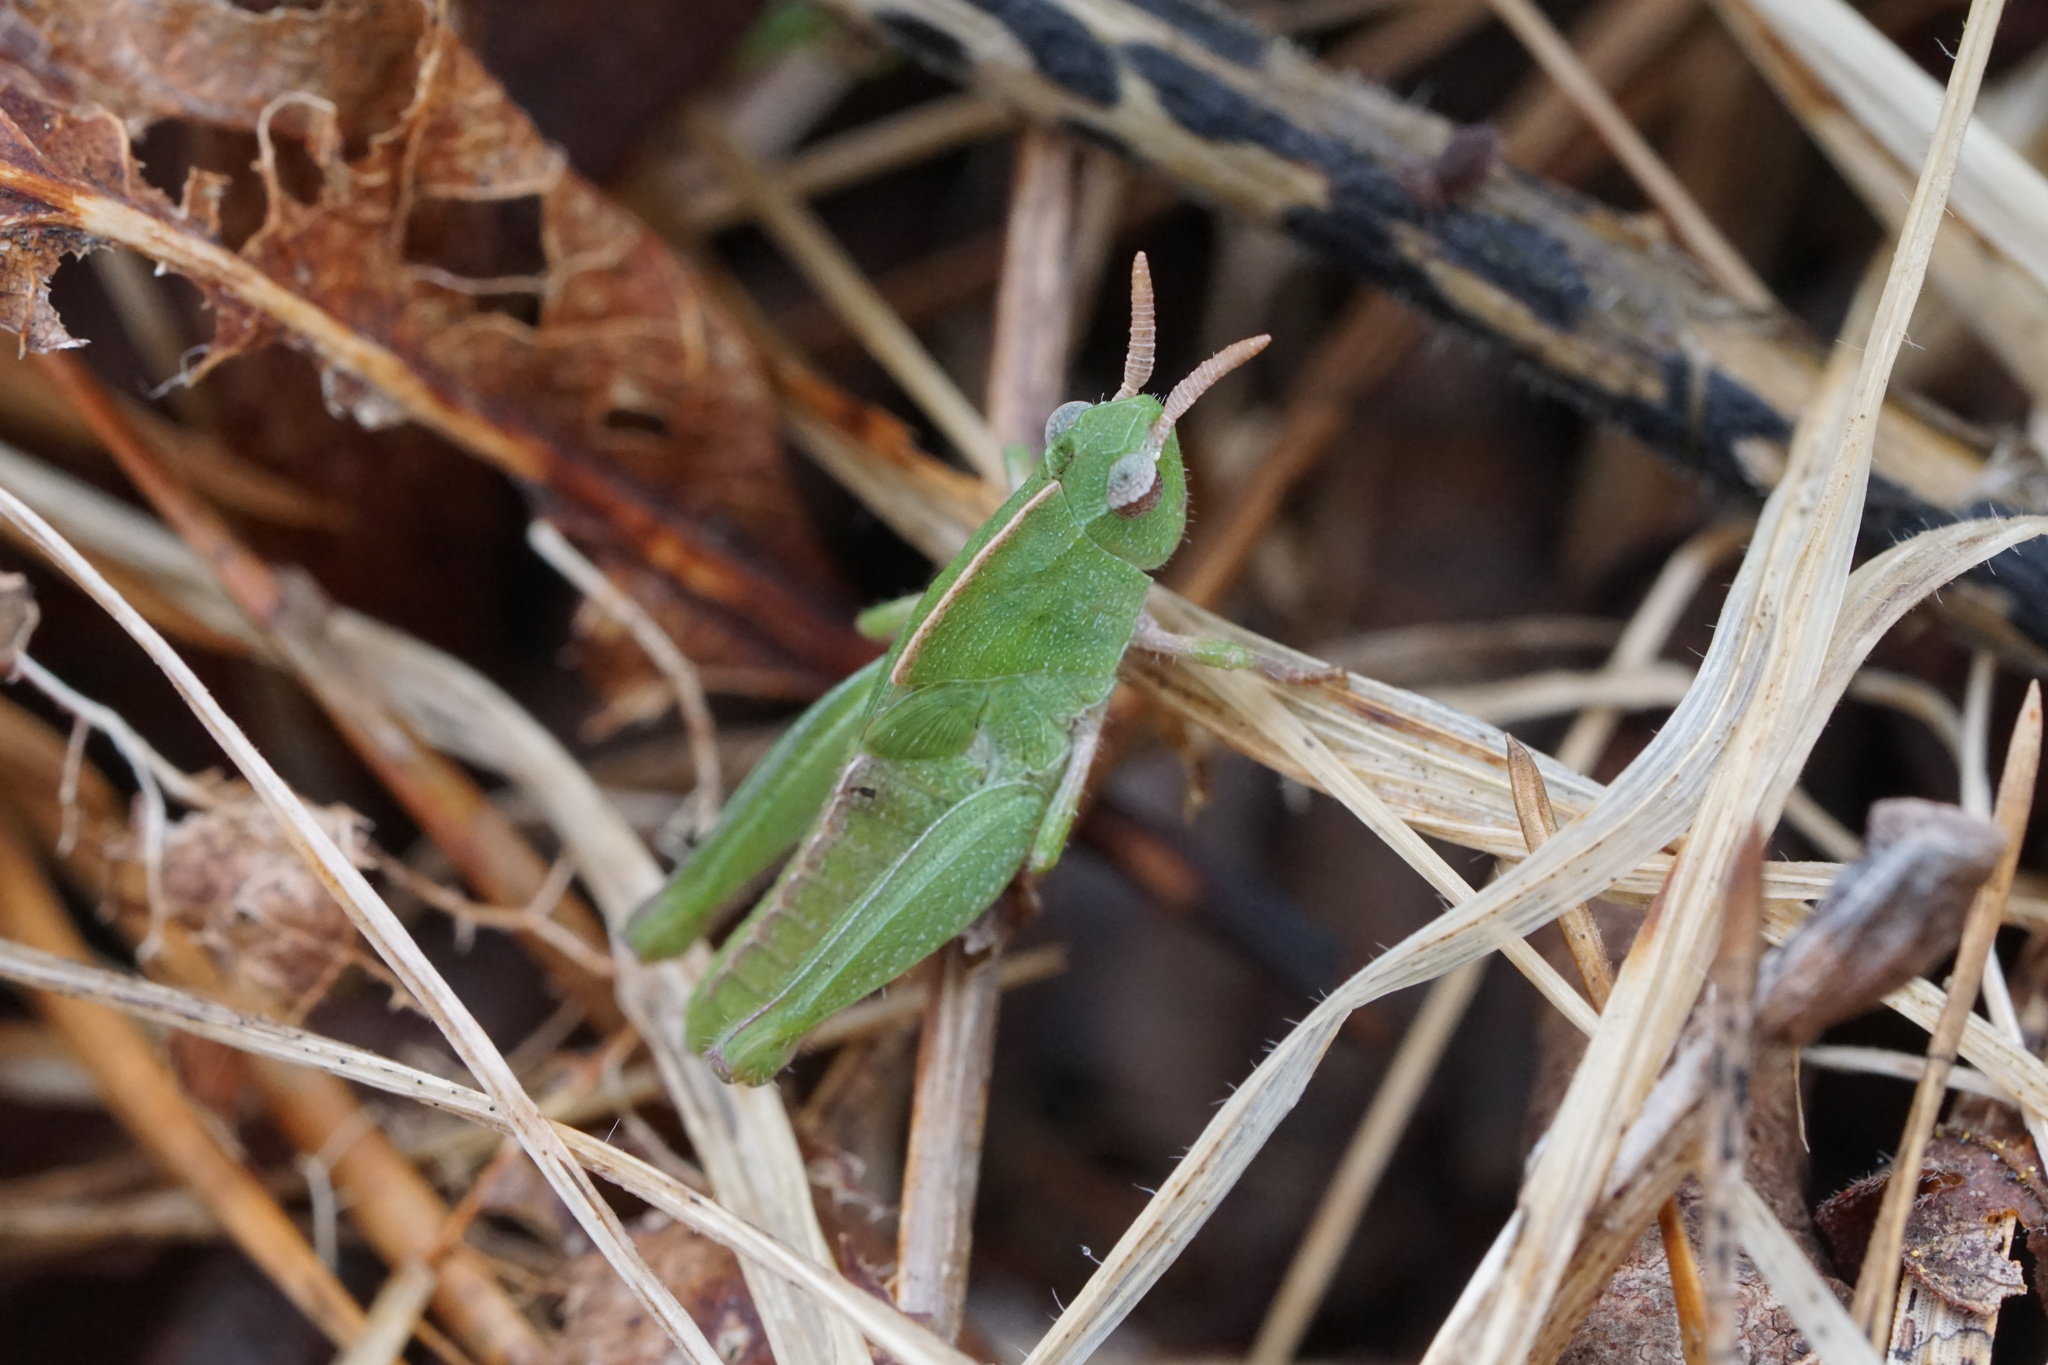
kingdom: Animalia
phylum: Arthropoda
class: Insecta
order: Orthoptera
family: Acrididae
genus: Chortophaga
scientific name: Chortophaga viridifasciata
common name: Green-striped grasshopper
